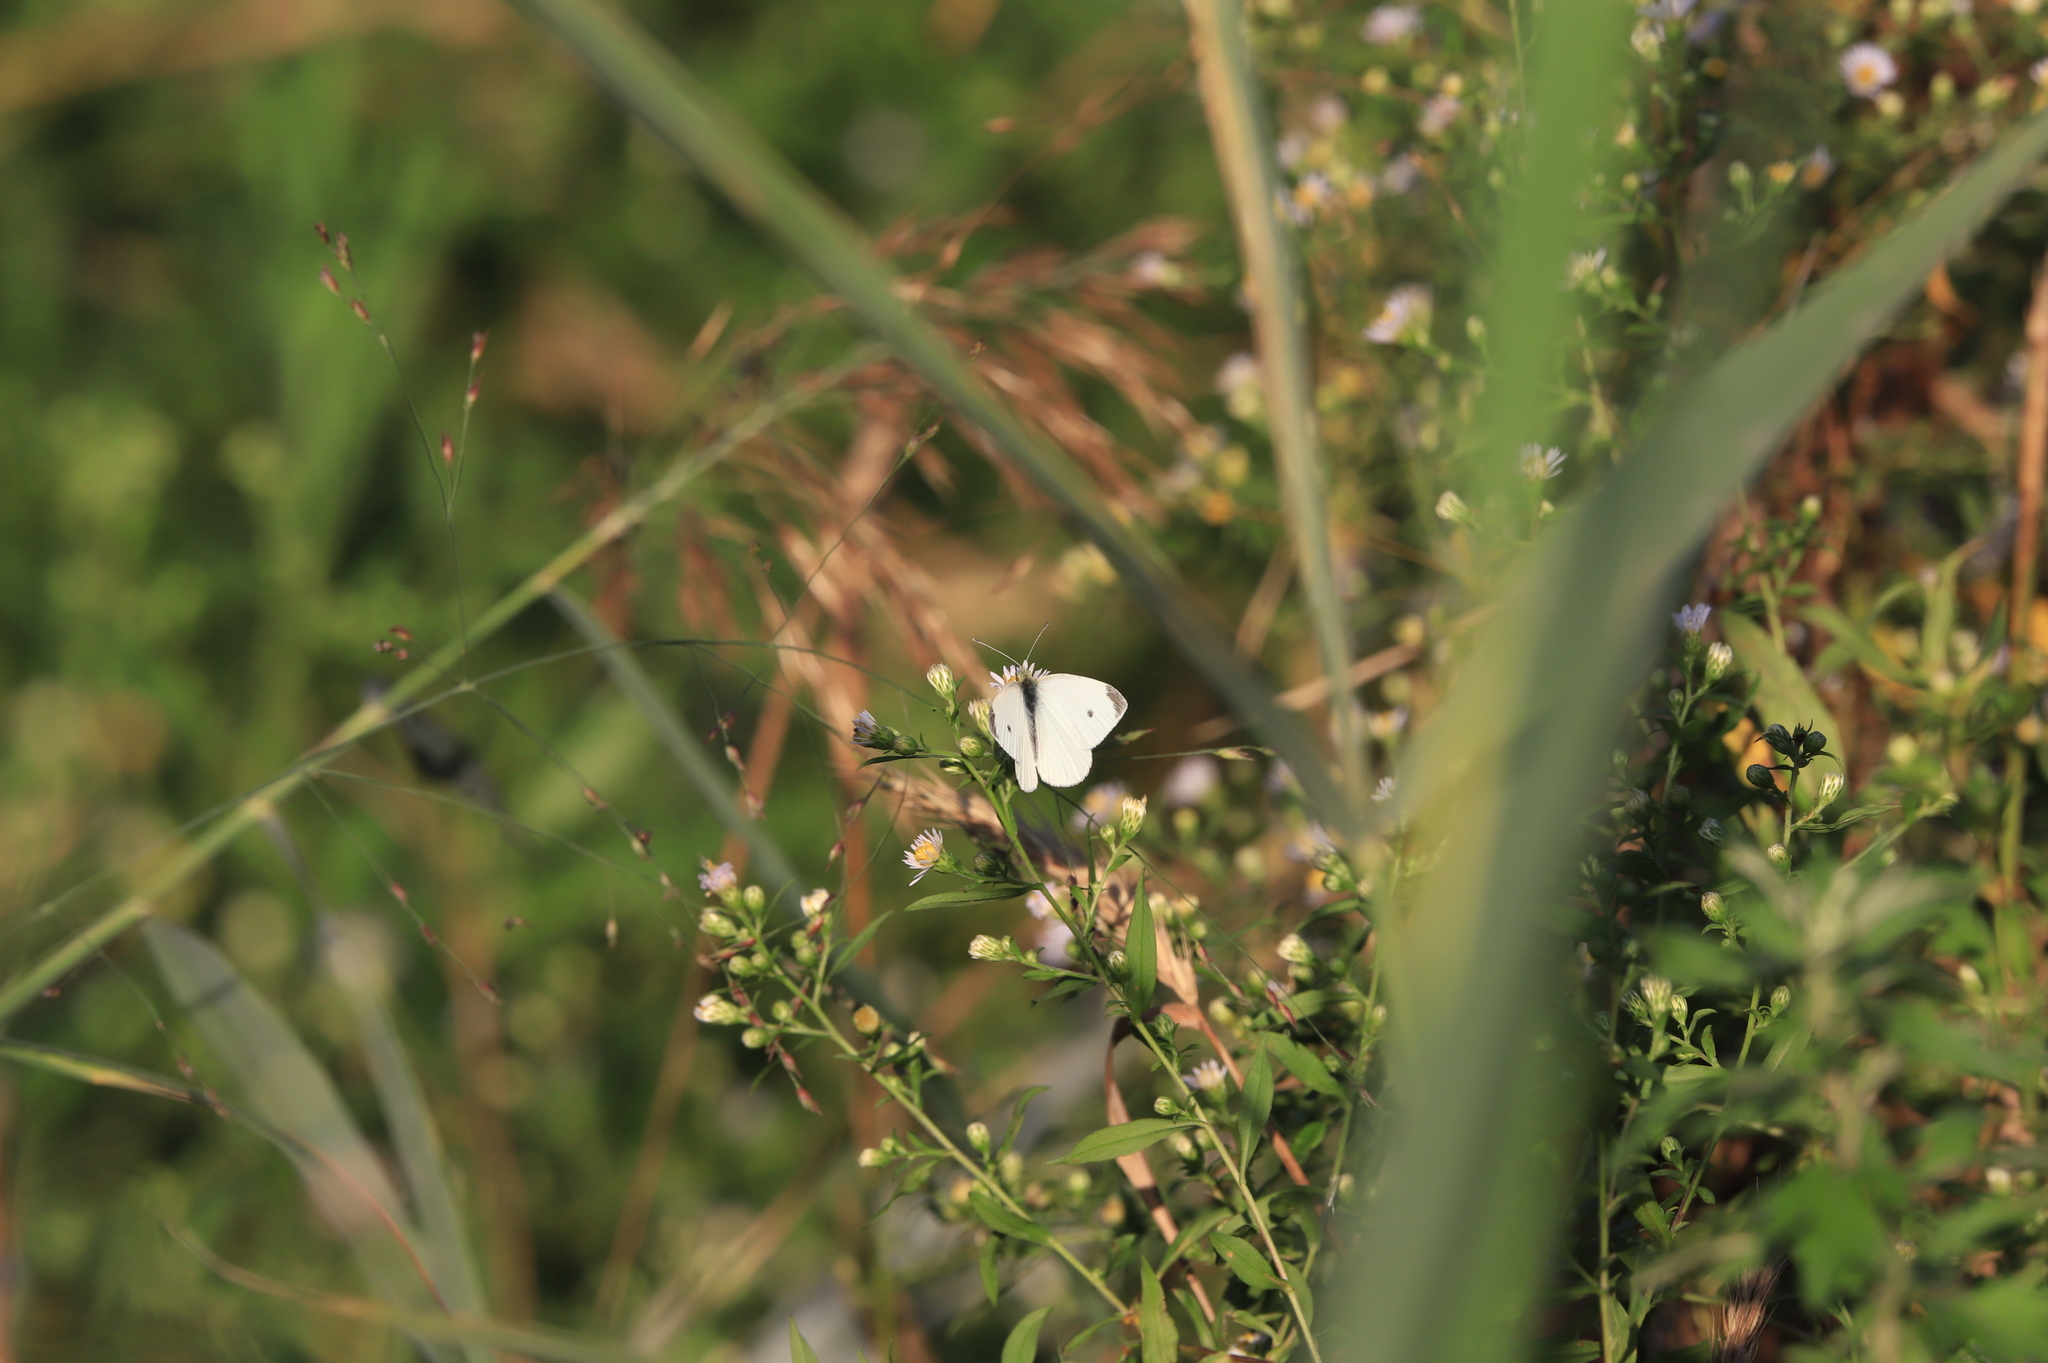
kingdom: Animalia
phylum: Arthropoda
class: Insecta
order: Lepidoptera
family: Pieridae
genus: Pieris
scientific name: Pieris rapae
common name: Small white
